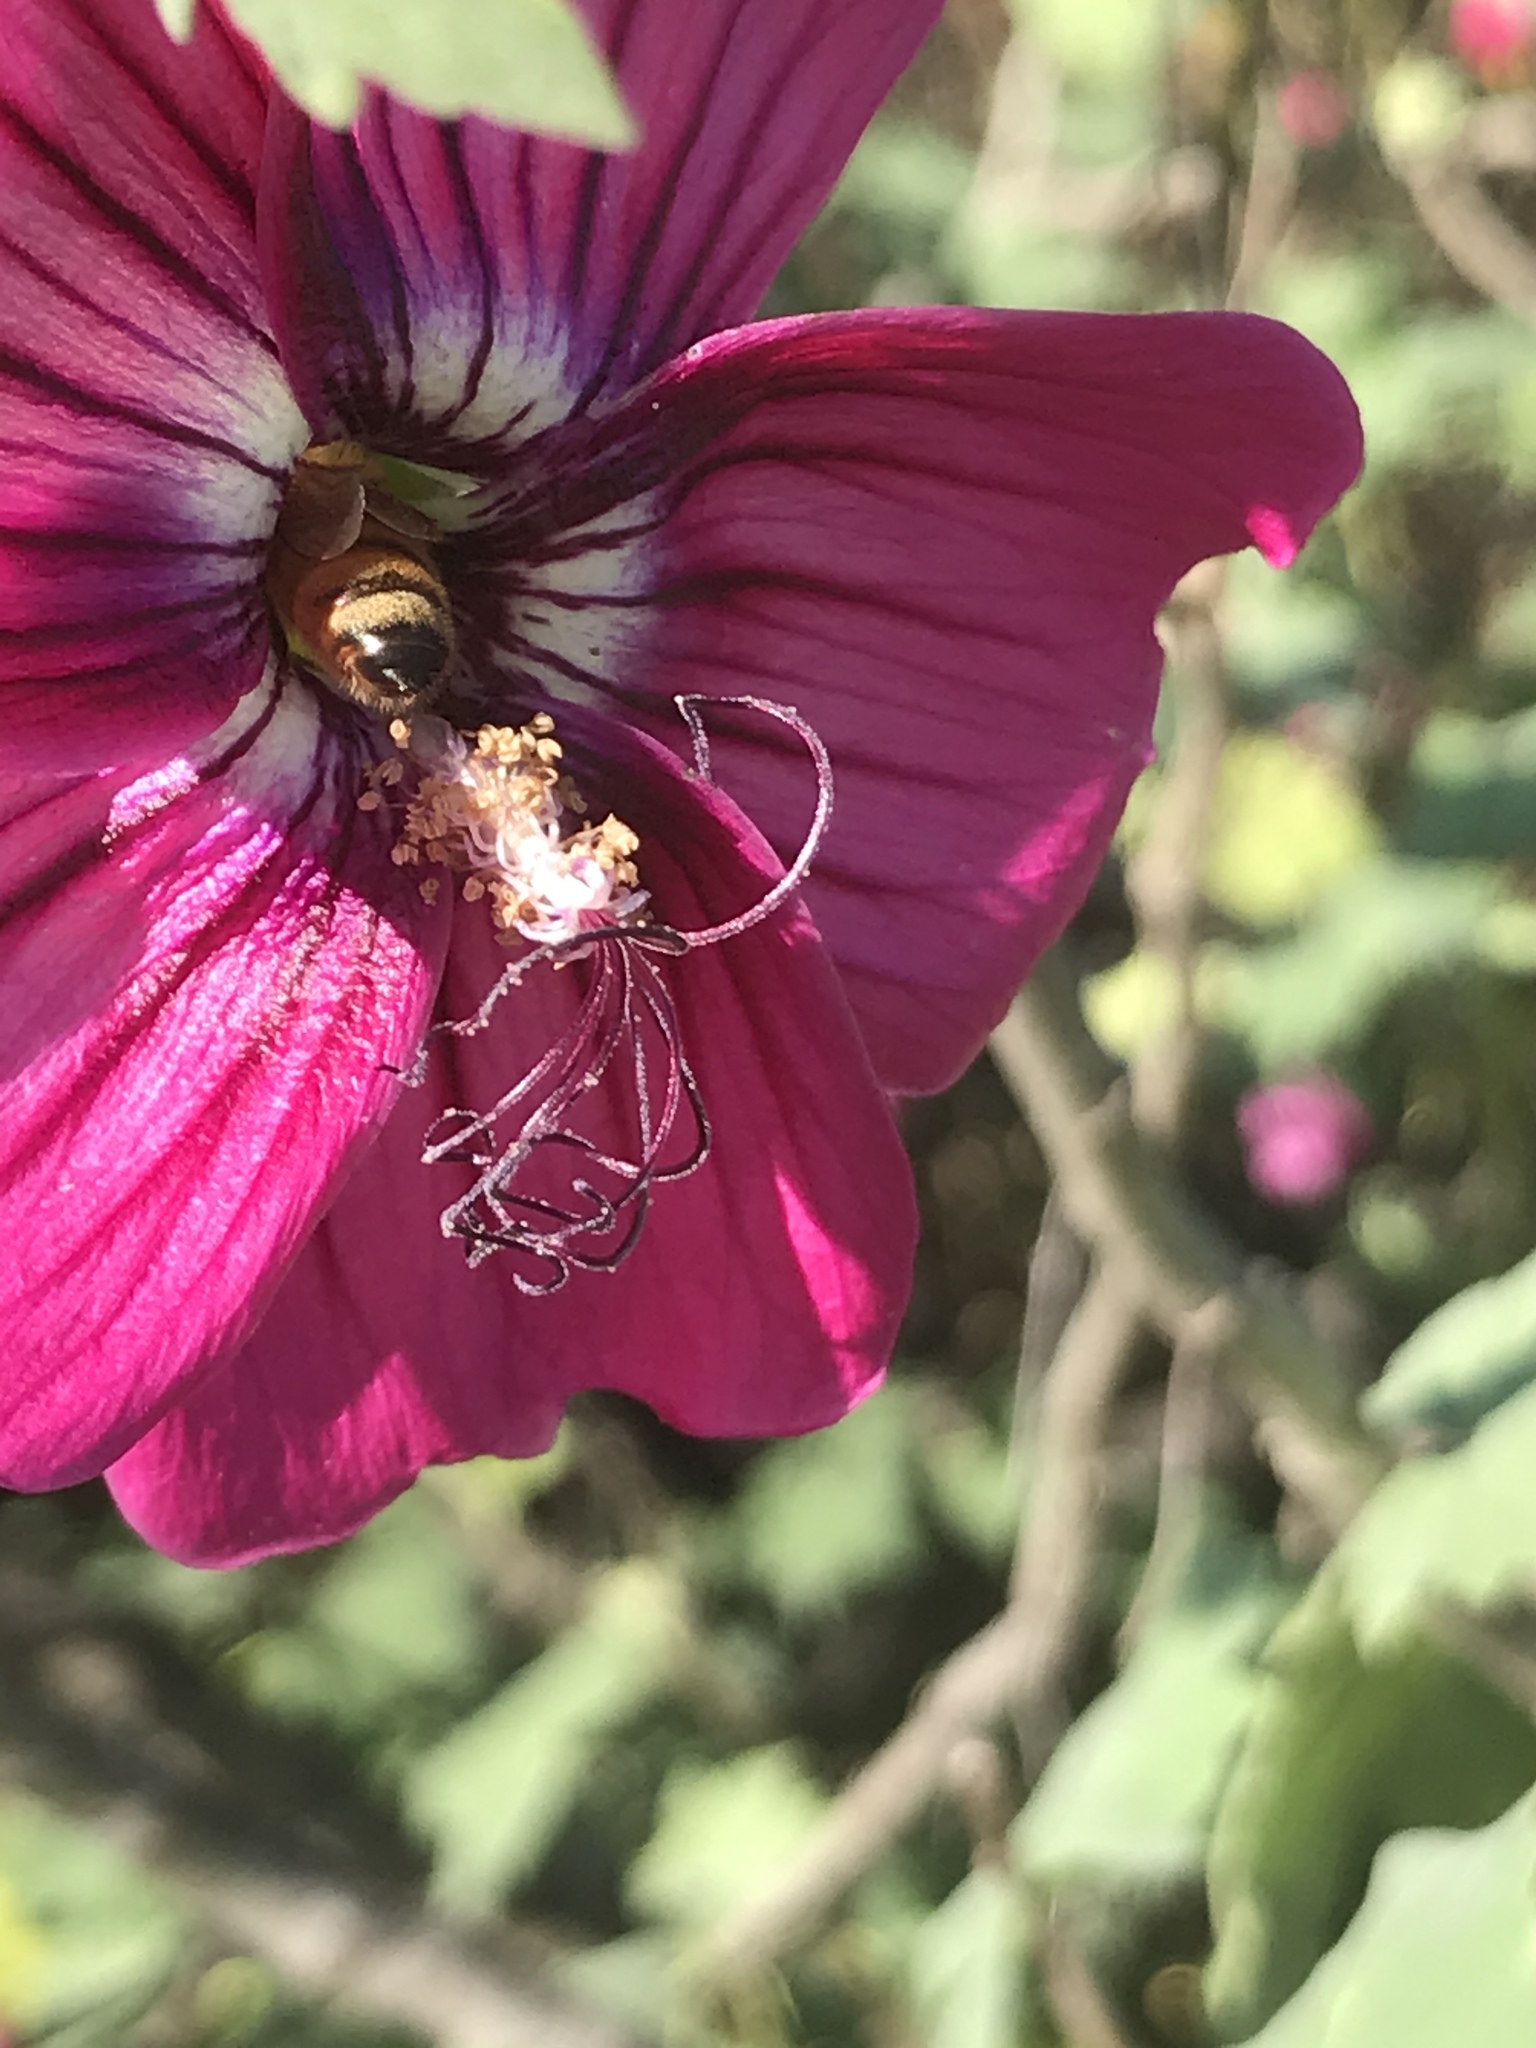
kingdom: Animalia
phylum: Arthropoda
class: Insecta
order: Hymenoptera
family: Apidae
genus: Apis
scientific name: Apis mellifera
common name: Honey bee
